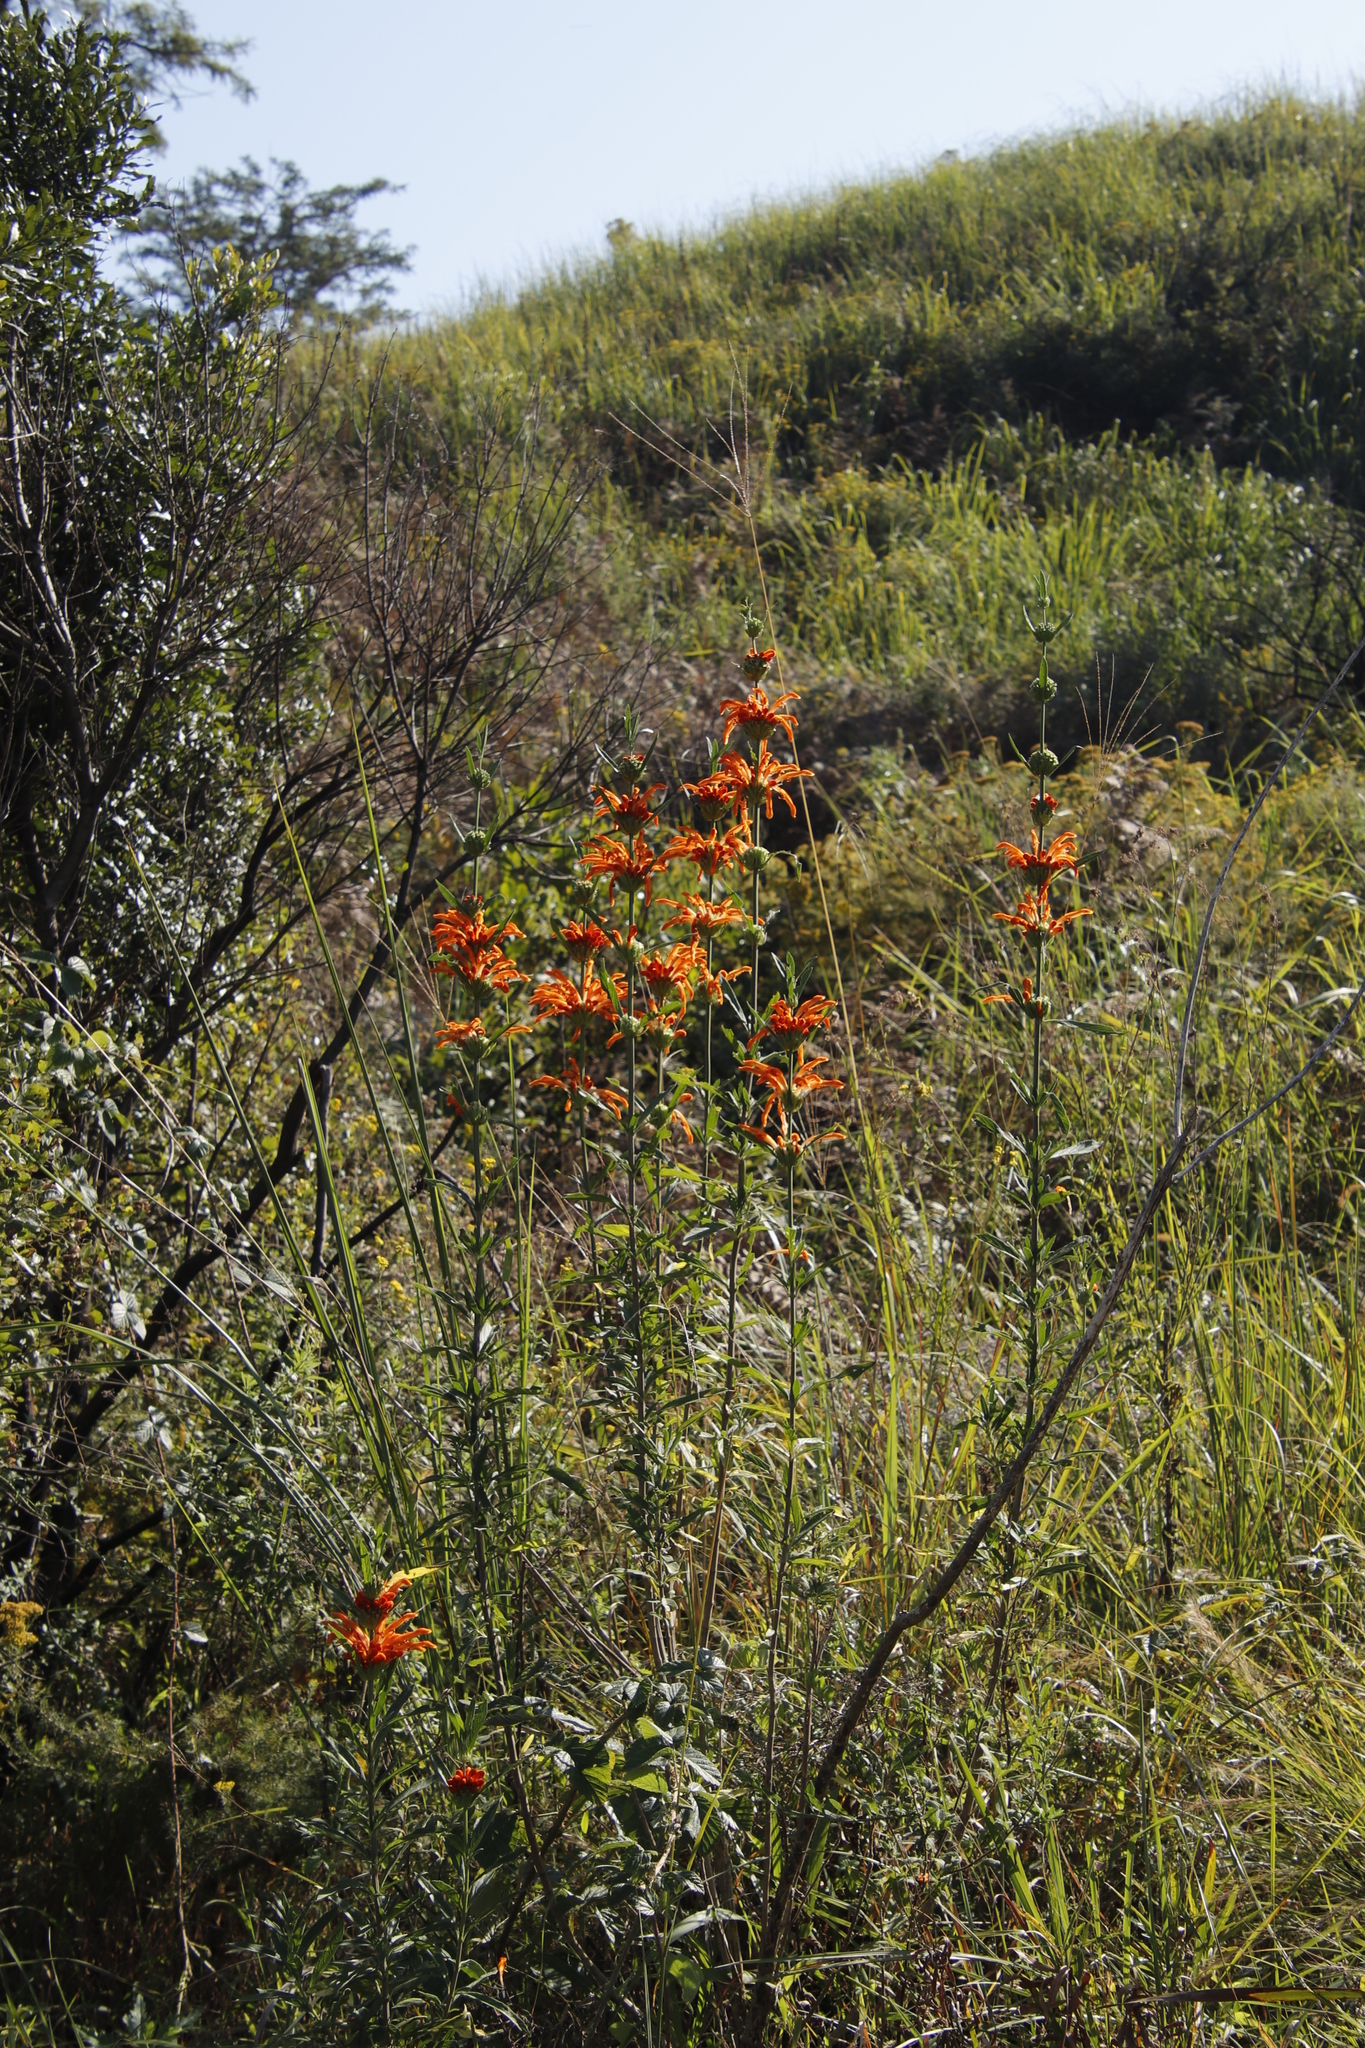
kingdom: Plantae
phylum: Tracheophyta
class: Magnoliopsida
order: Lamiales
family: Lamiaceae
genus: Leonotis
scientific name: Leonotis leonurus
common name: Lion's ear
